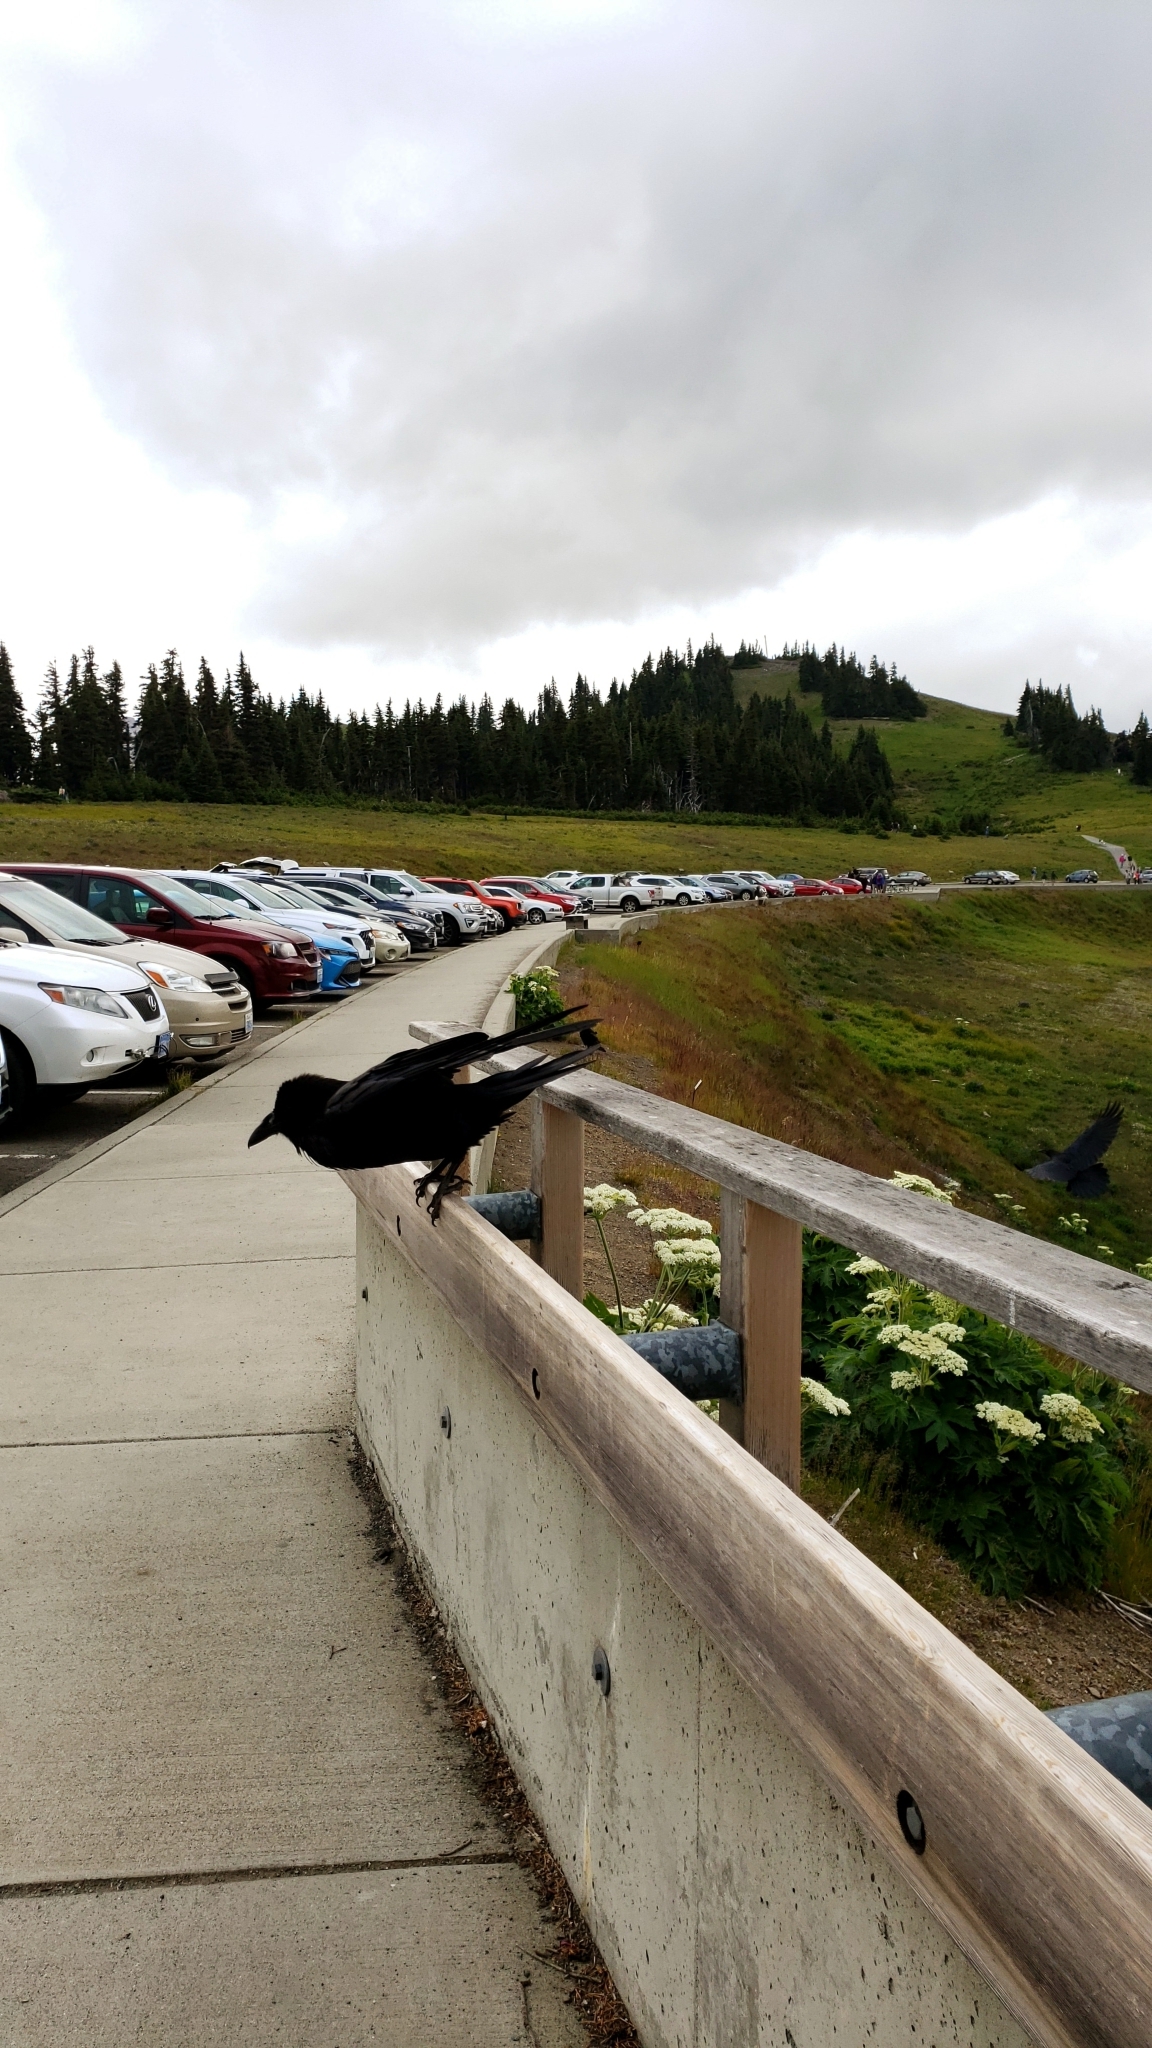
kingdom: Animalia
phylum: Chordata
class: Aves
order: Passeriformes
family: Corvidae
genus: Corvus
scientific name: Corvus corax
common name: Common raven
